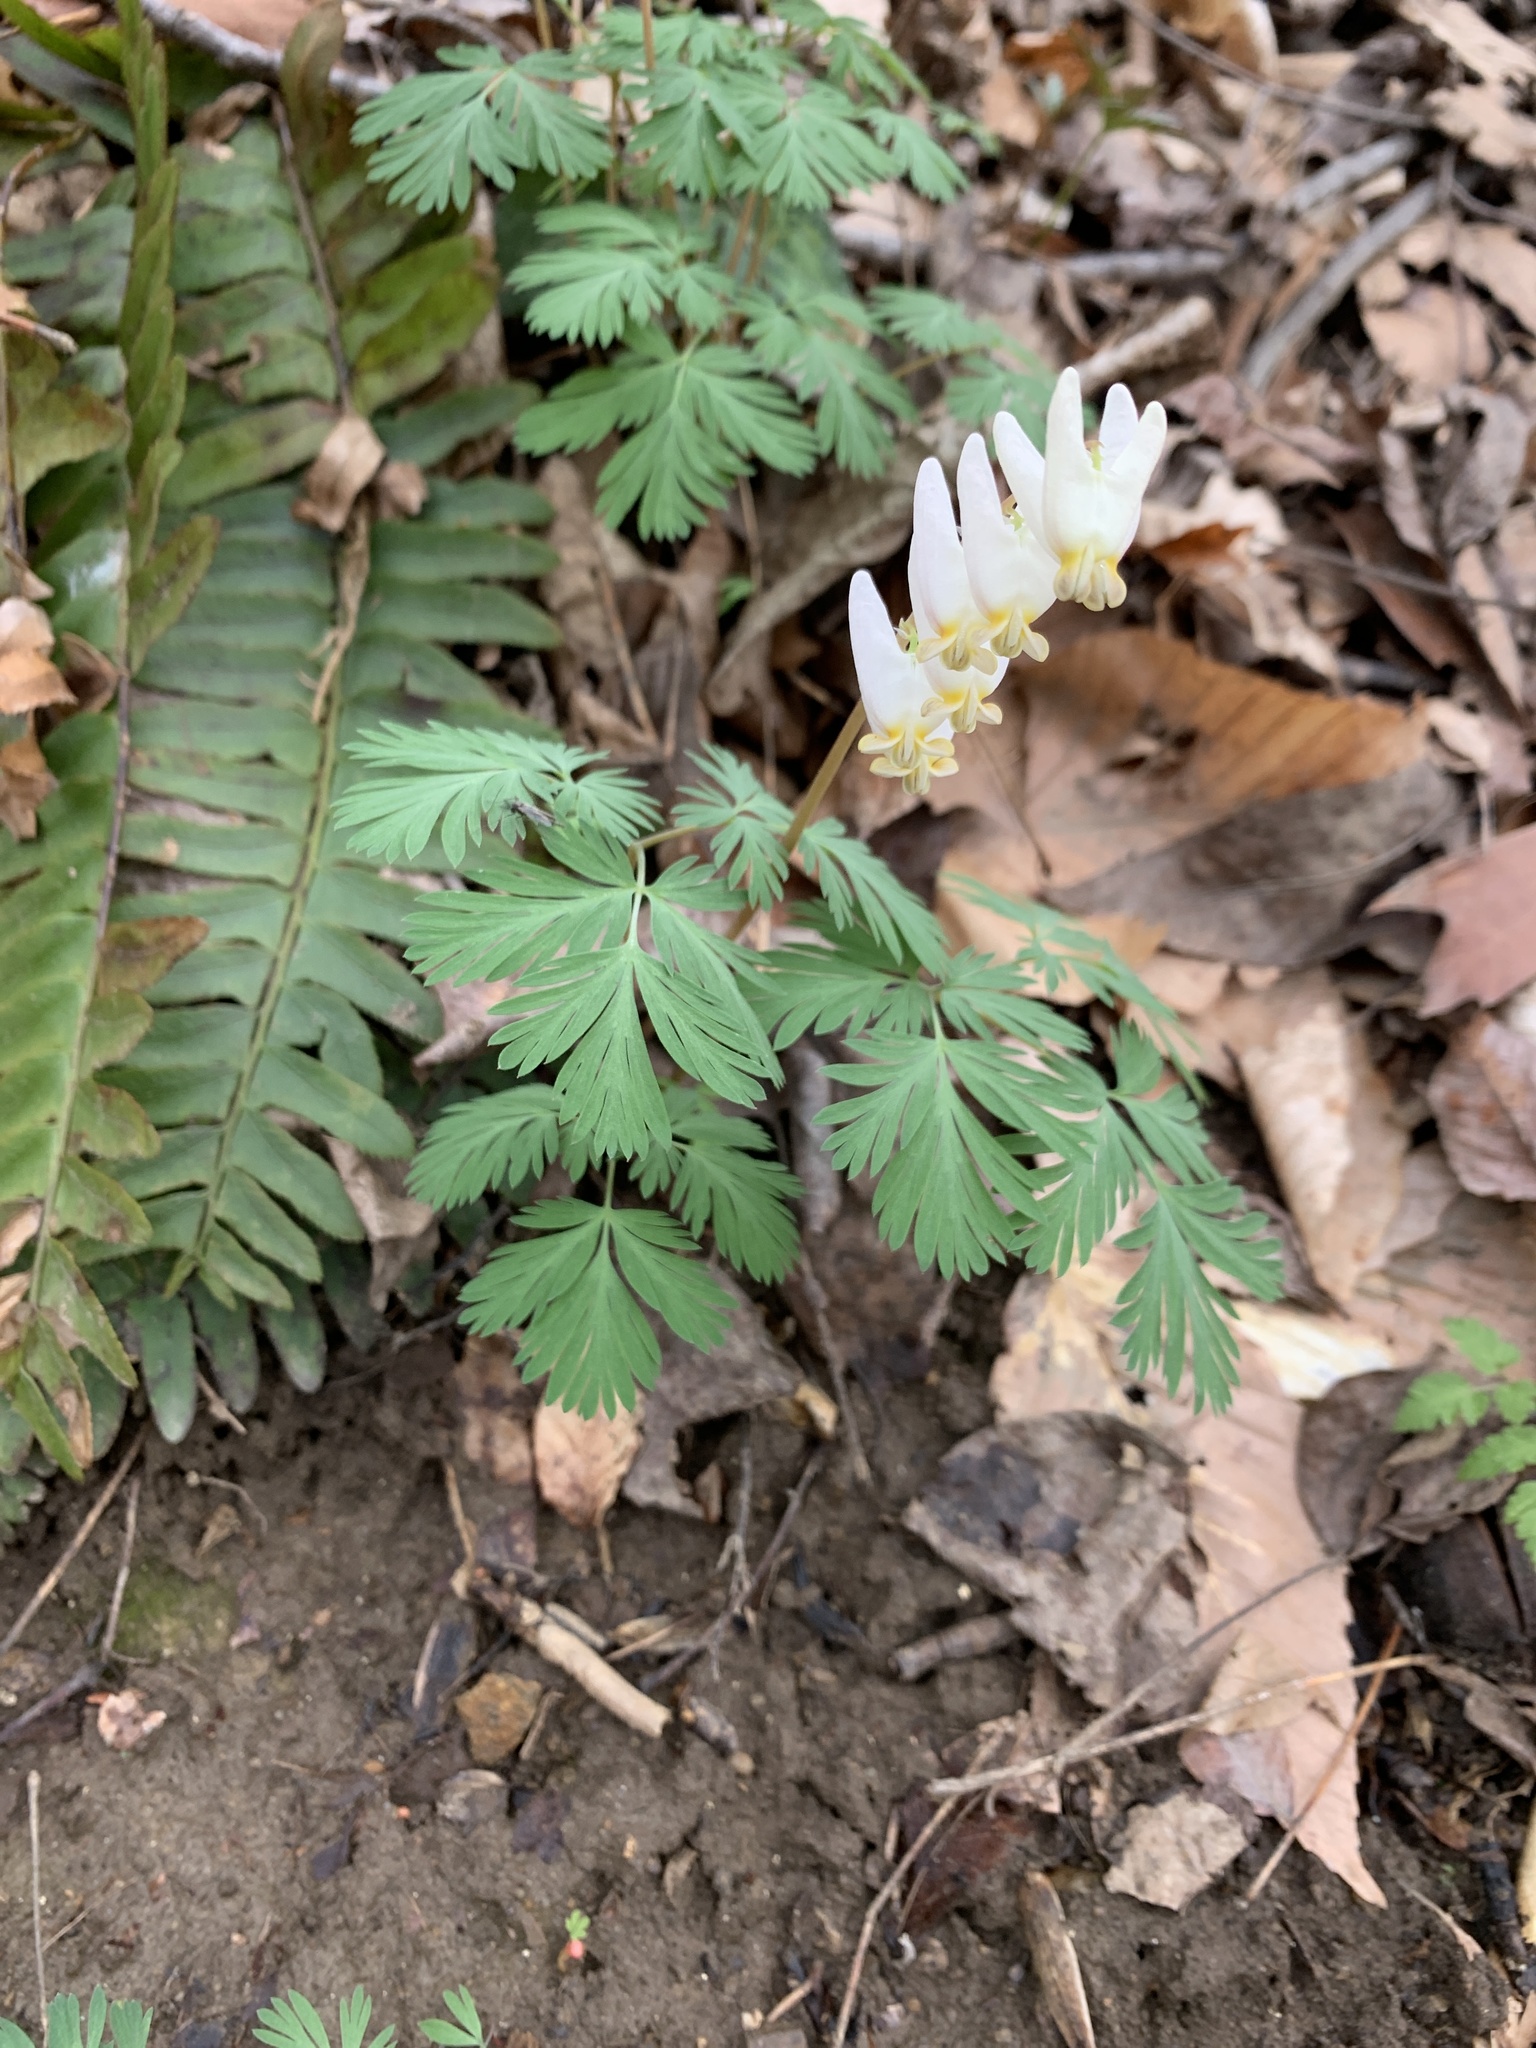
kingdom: Plantae
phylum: Tracheophyta
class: Magnoliopsida
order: Ranunculales
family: Papaveraceae
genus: Dicentra
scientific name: Dicentra cucullaria
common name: Dutchman's breeches
